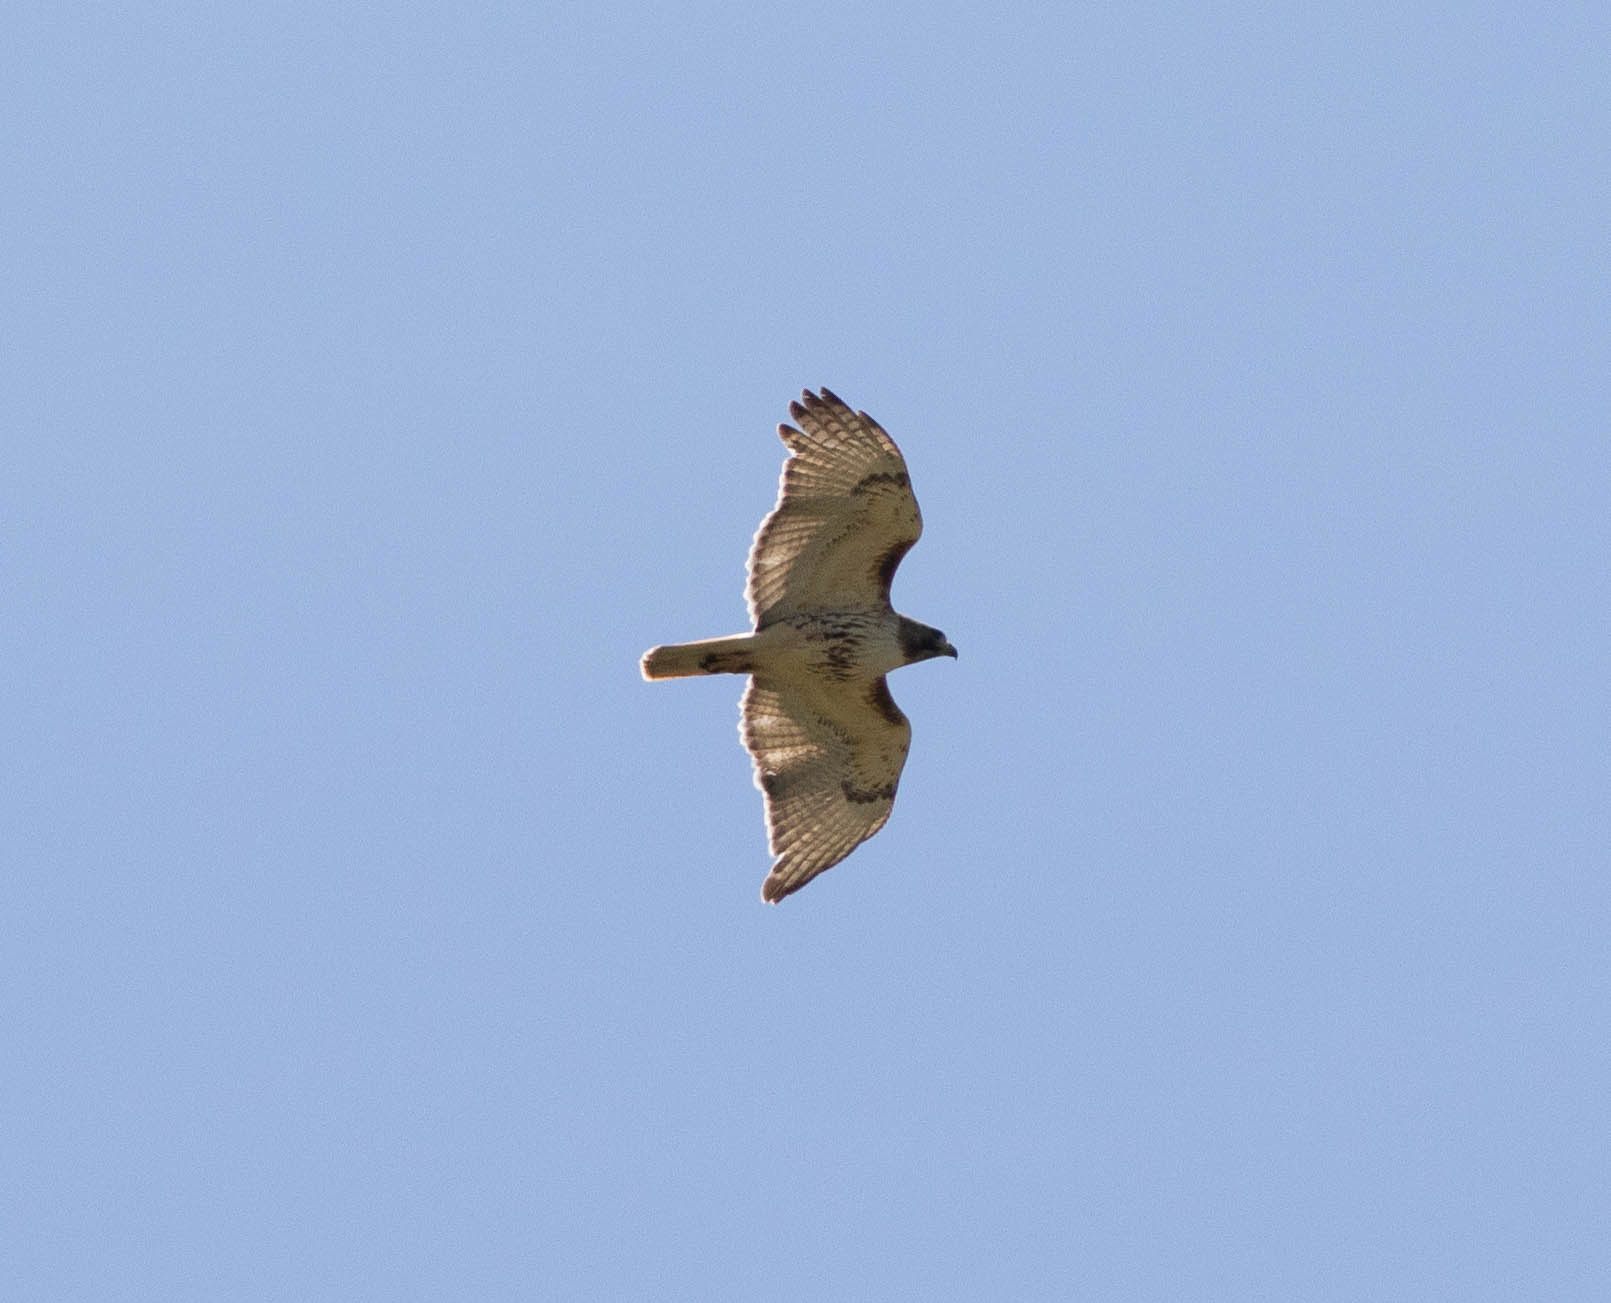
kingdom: Animalia
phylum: Chordata
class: Aves
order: Accipitriformes
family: Accipitridae
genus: Buteo
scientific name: Buteo jamaicensis
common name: Red-tailed hawk
